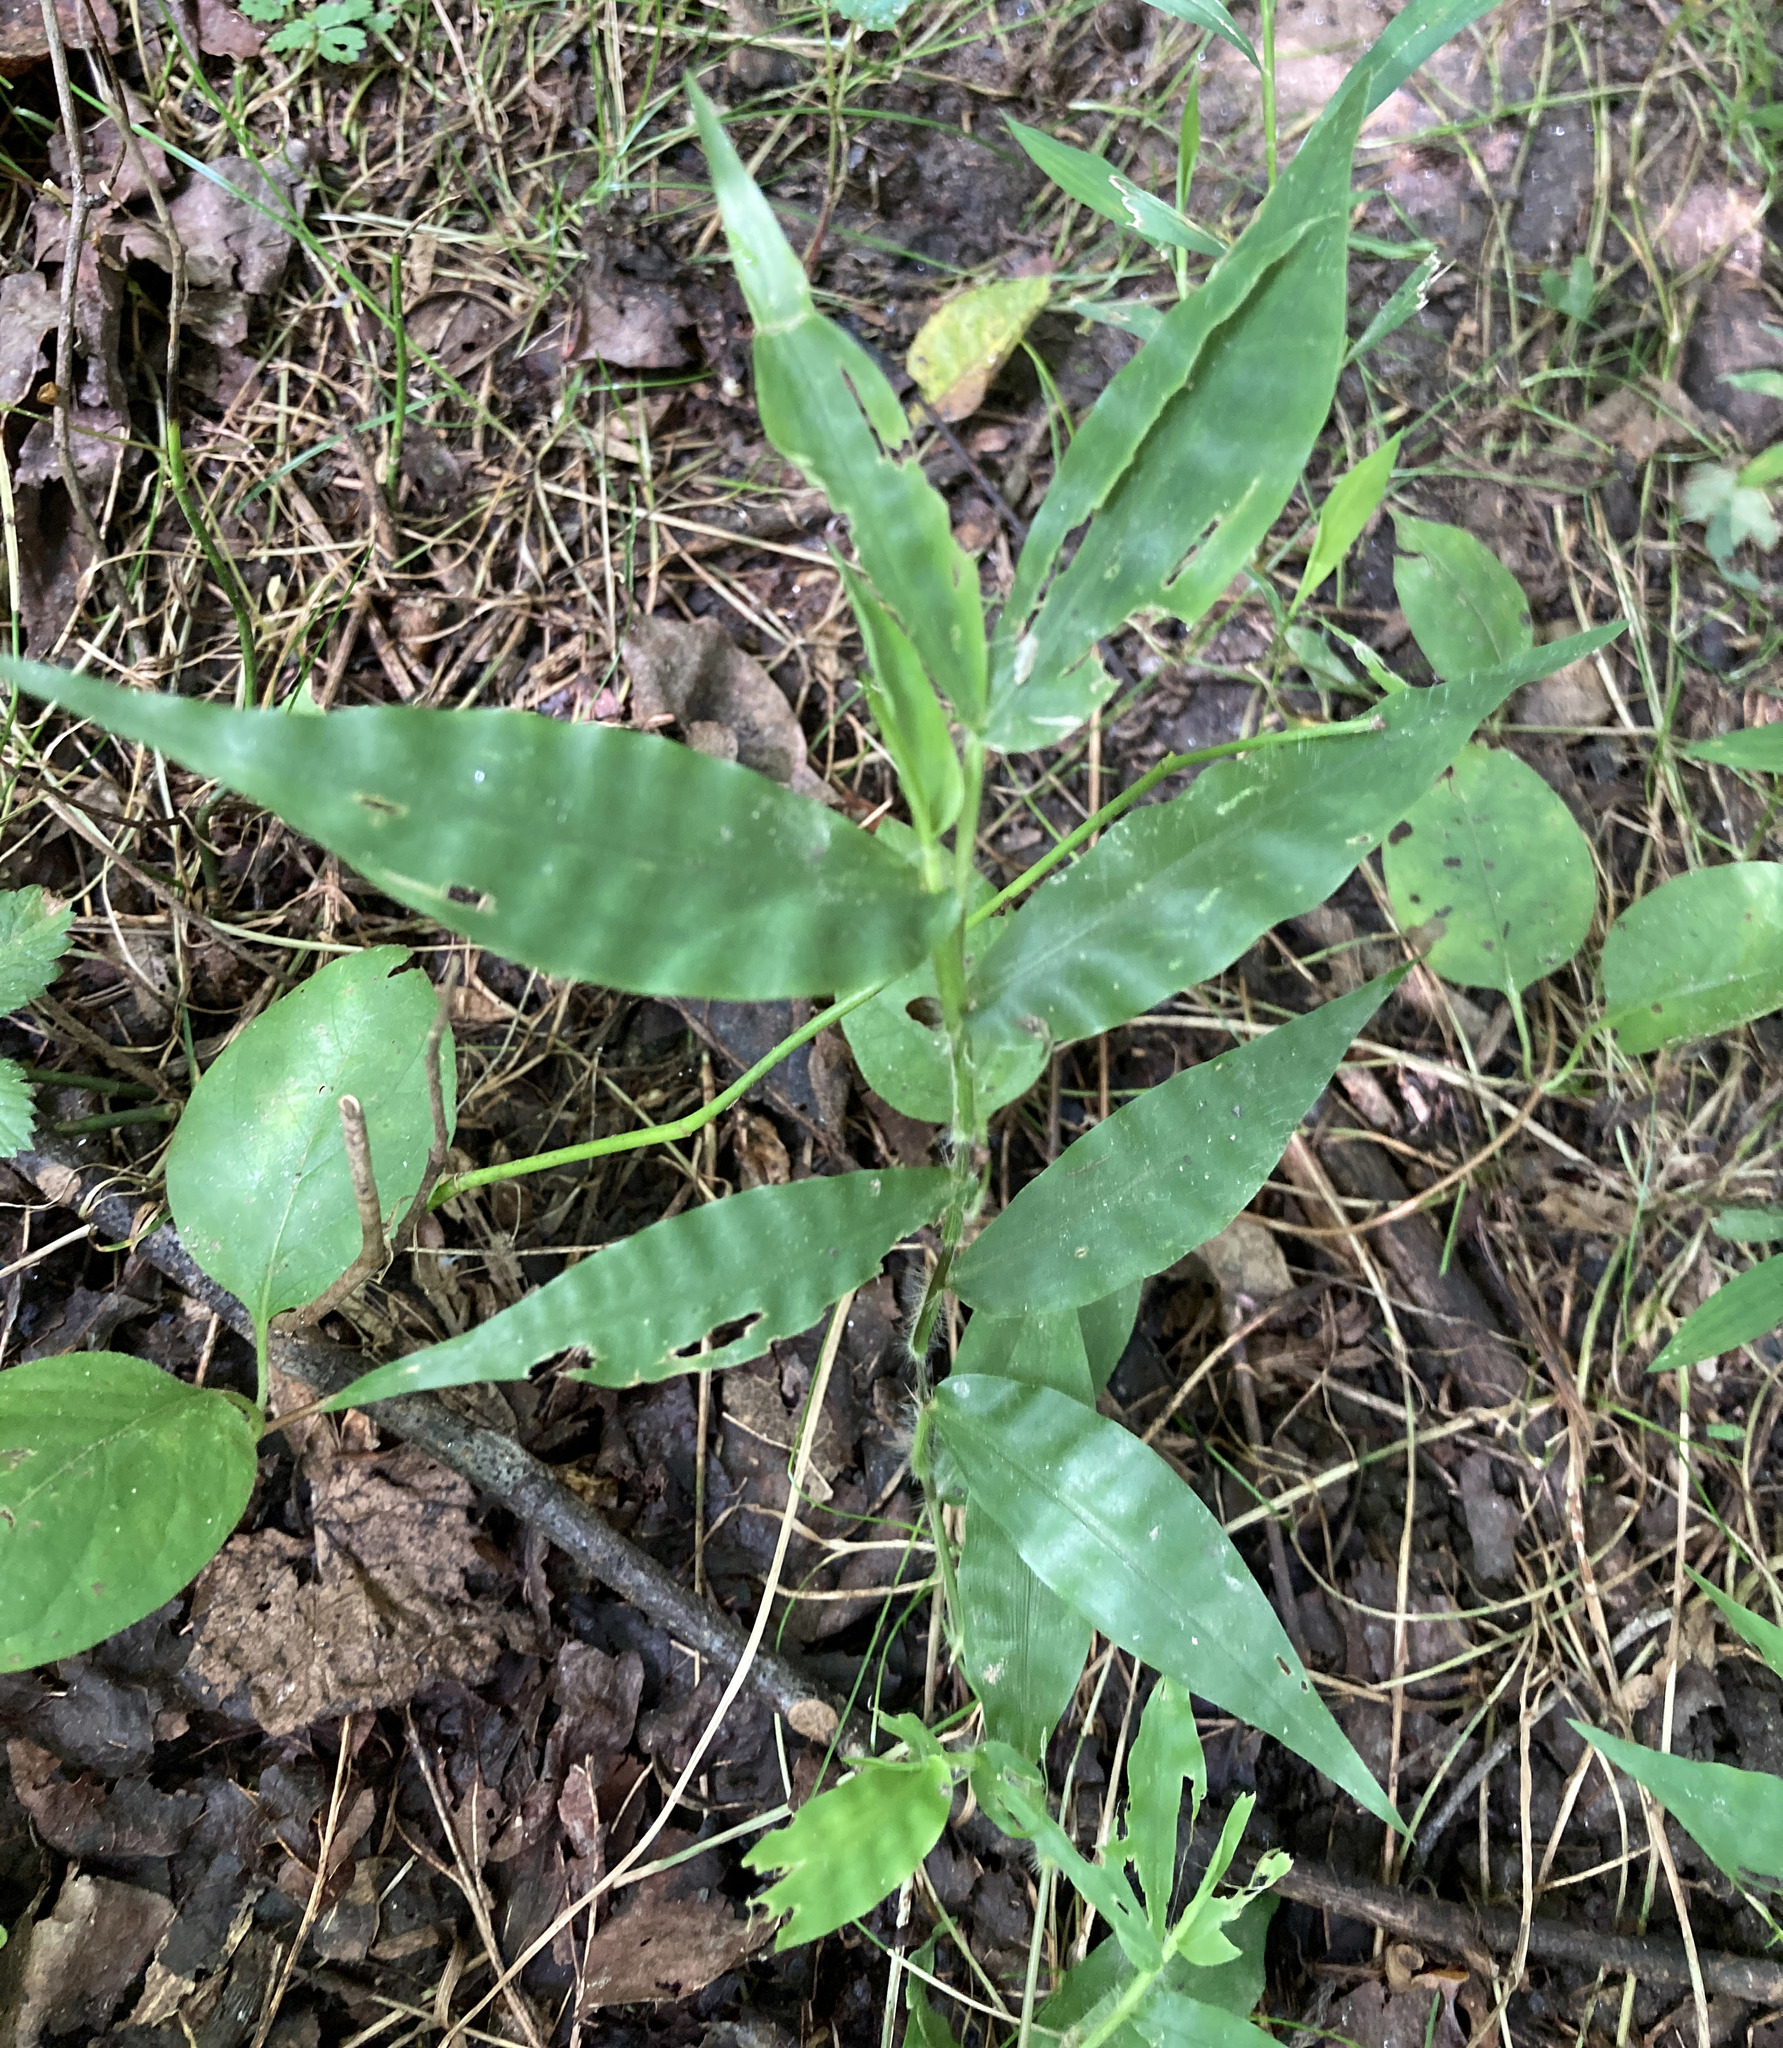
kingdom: Plantae
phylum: Tracheophyta
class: Liliopsida
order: Poales
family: Poaceae
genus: Oplismenus
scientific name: Oplismenus undulatifolius
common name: Wavyleaf basketgrass
